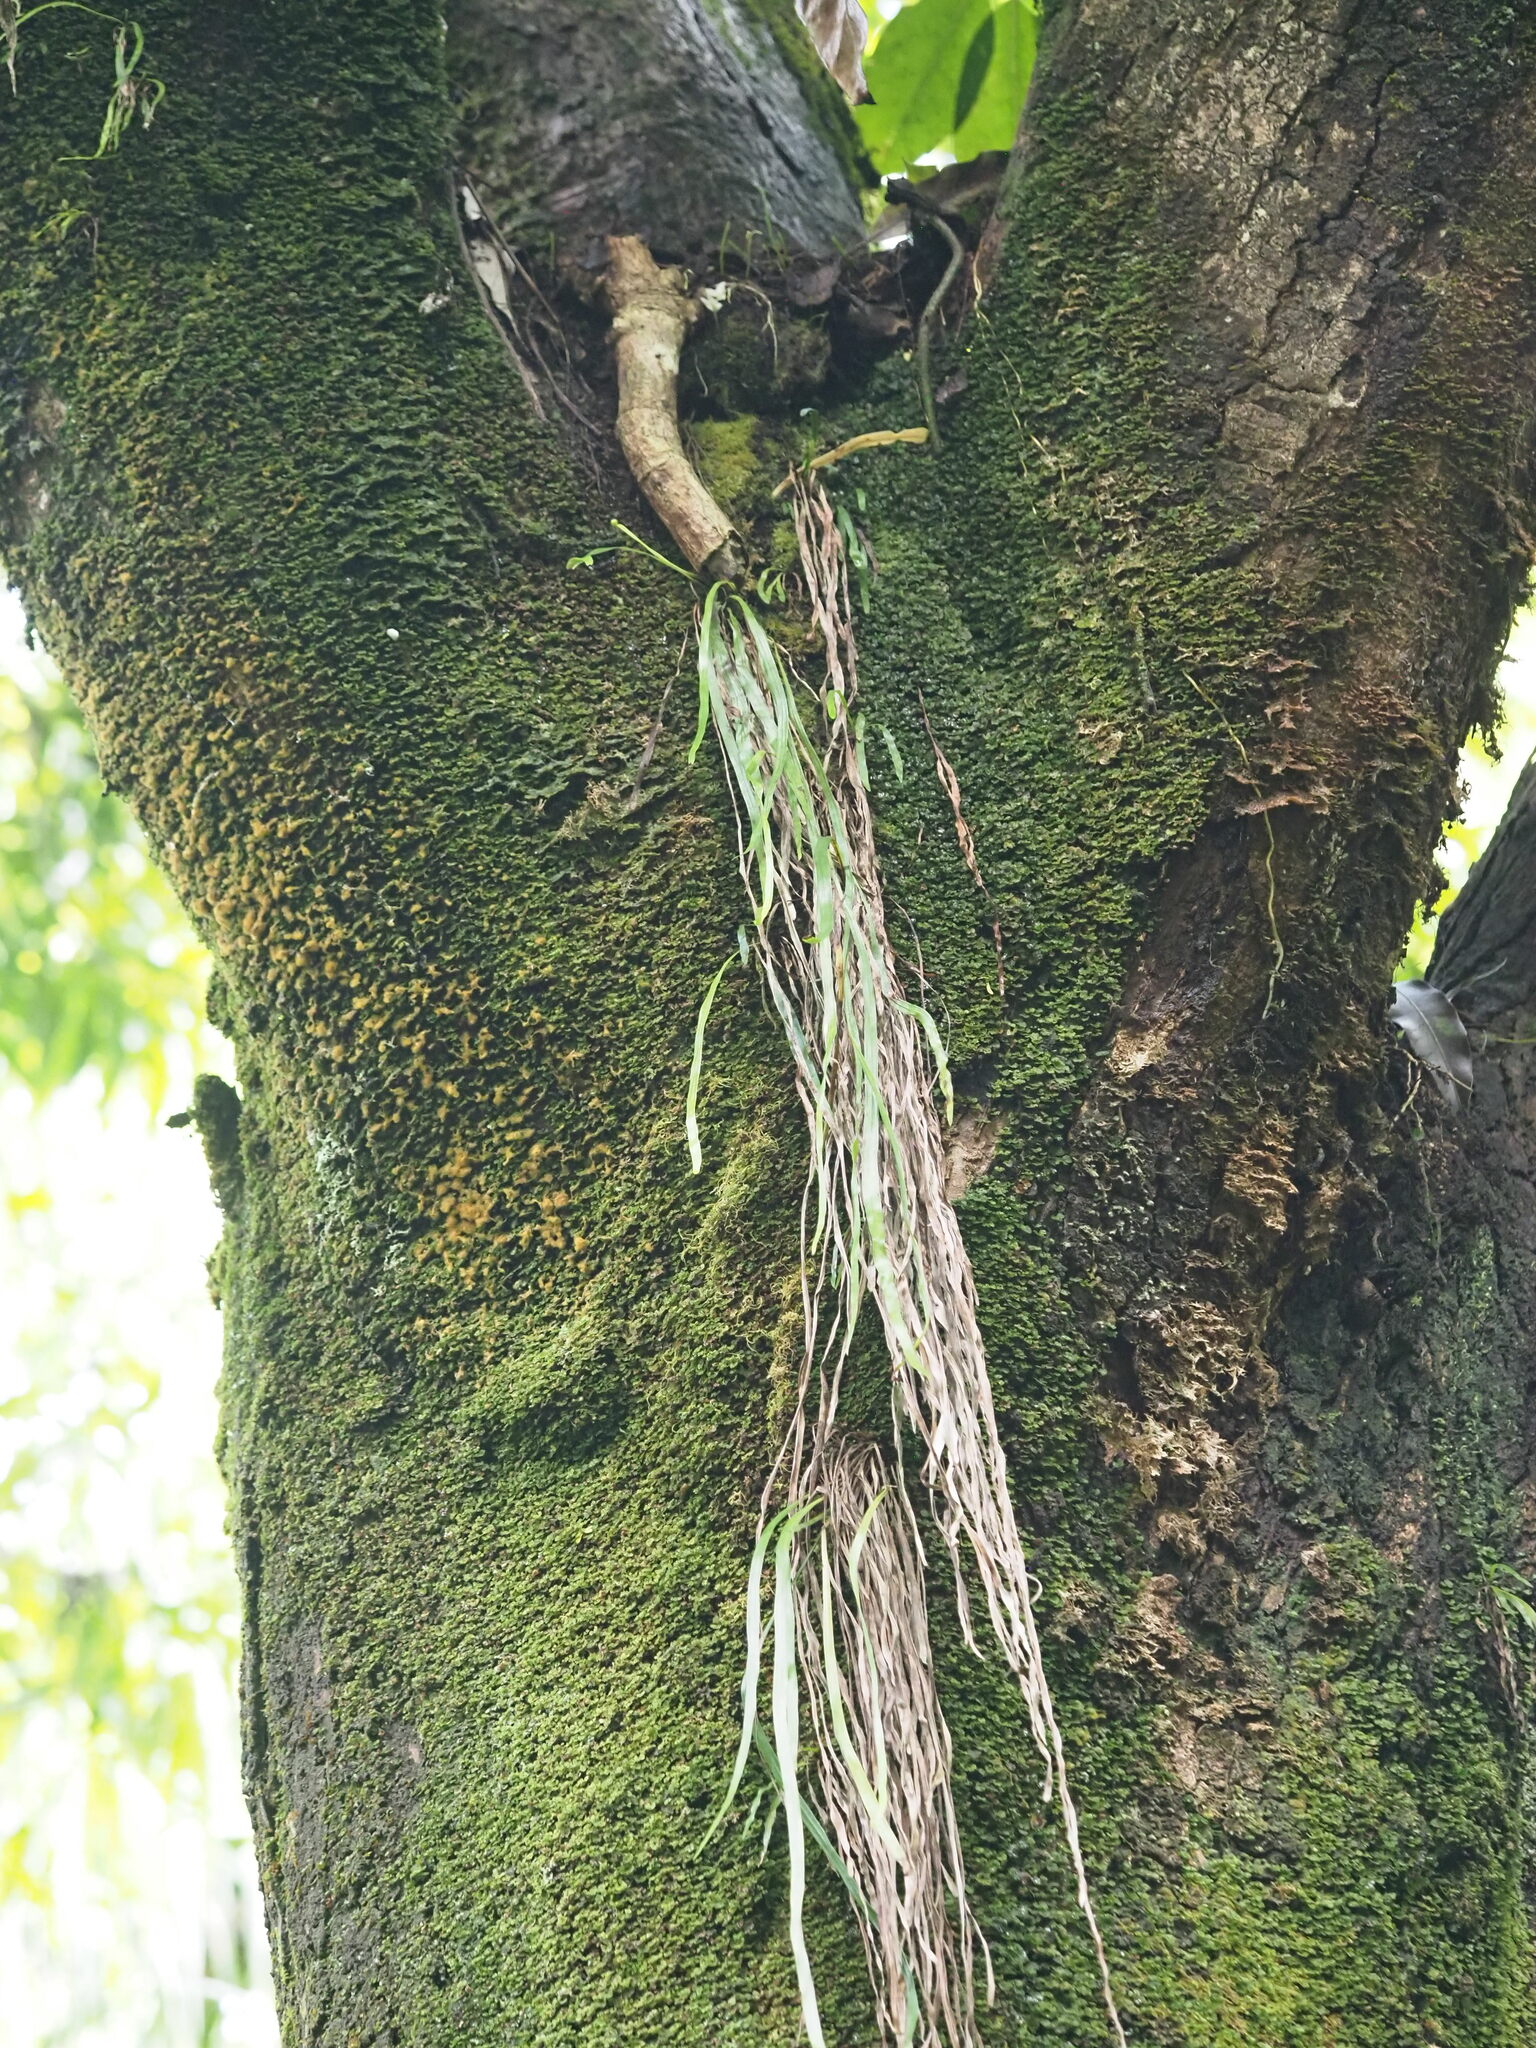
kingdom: Plantae
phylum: Tracheophyta
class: Polypodiopsida
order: Polypodiales
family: Pteridaceae
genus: Haplopteris
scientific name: Haplopteris elongata
